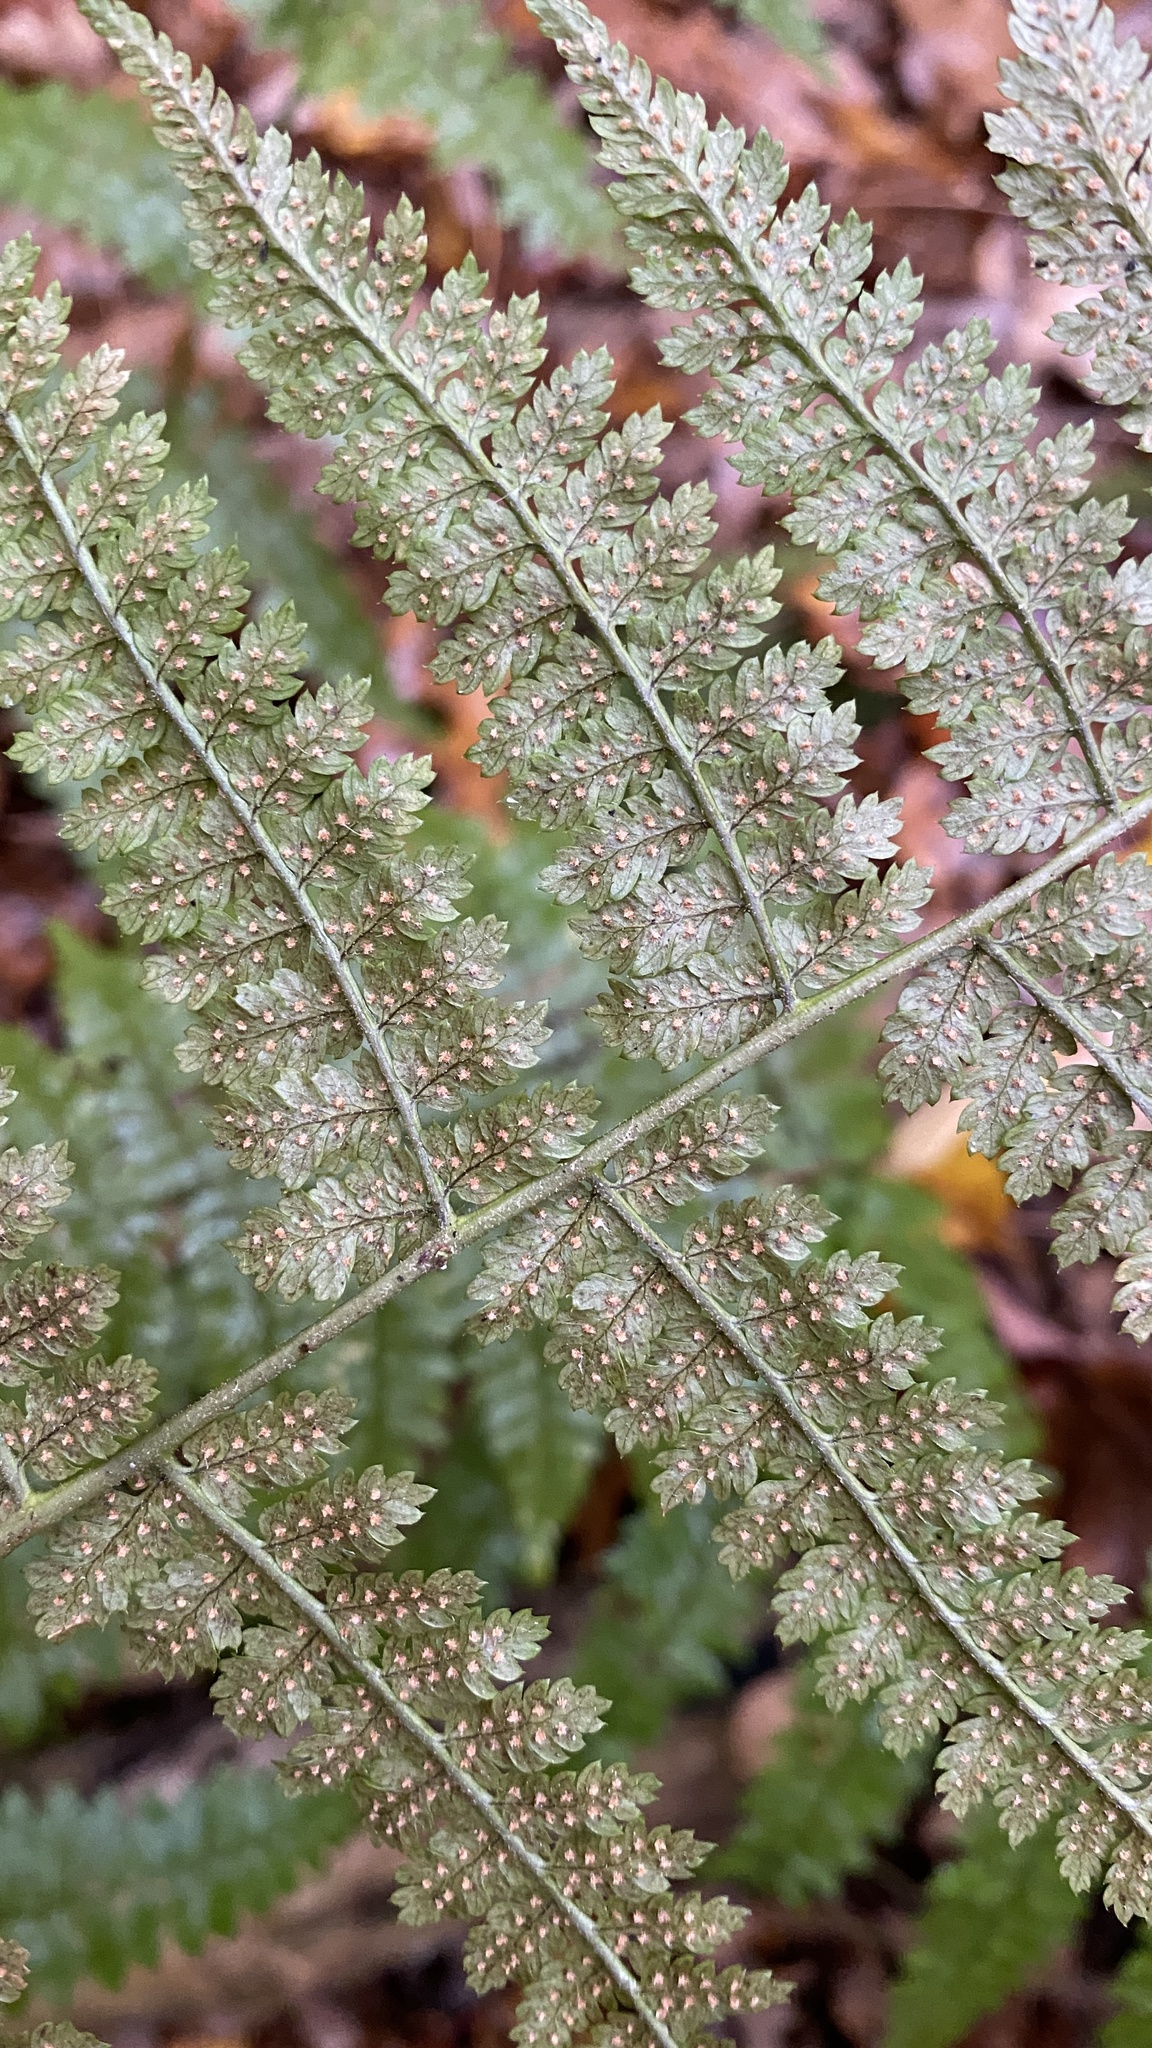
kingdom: Plantae
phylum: Tracheophyta
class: Polypodiopsida
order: Polypodiales
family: Dryopteridaceae
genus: Dryopteris
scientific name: Dryopteris intermedia
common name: Evergreen wood fern
